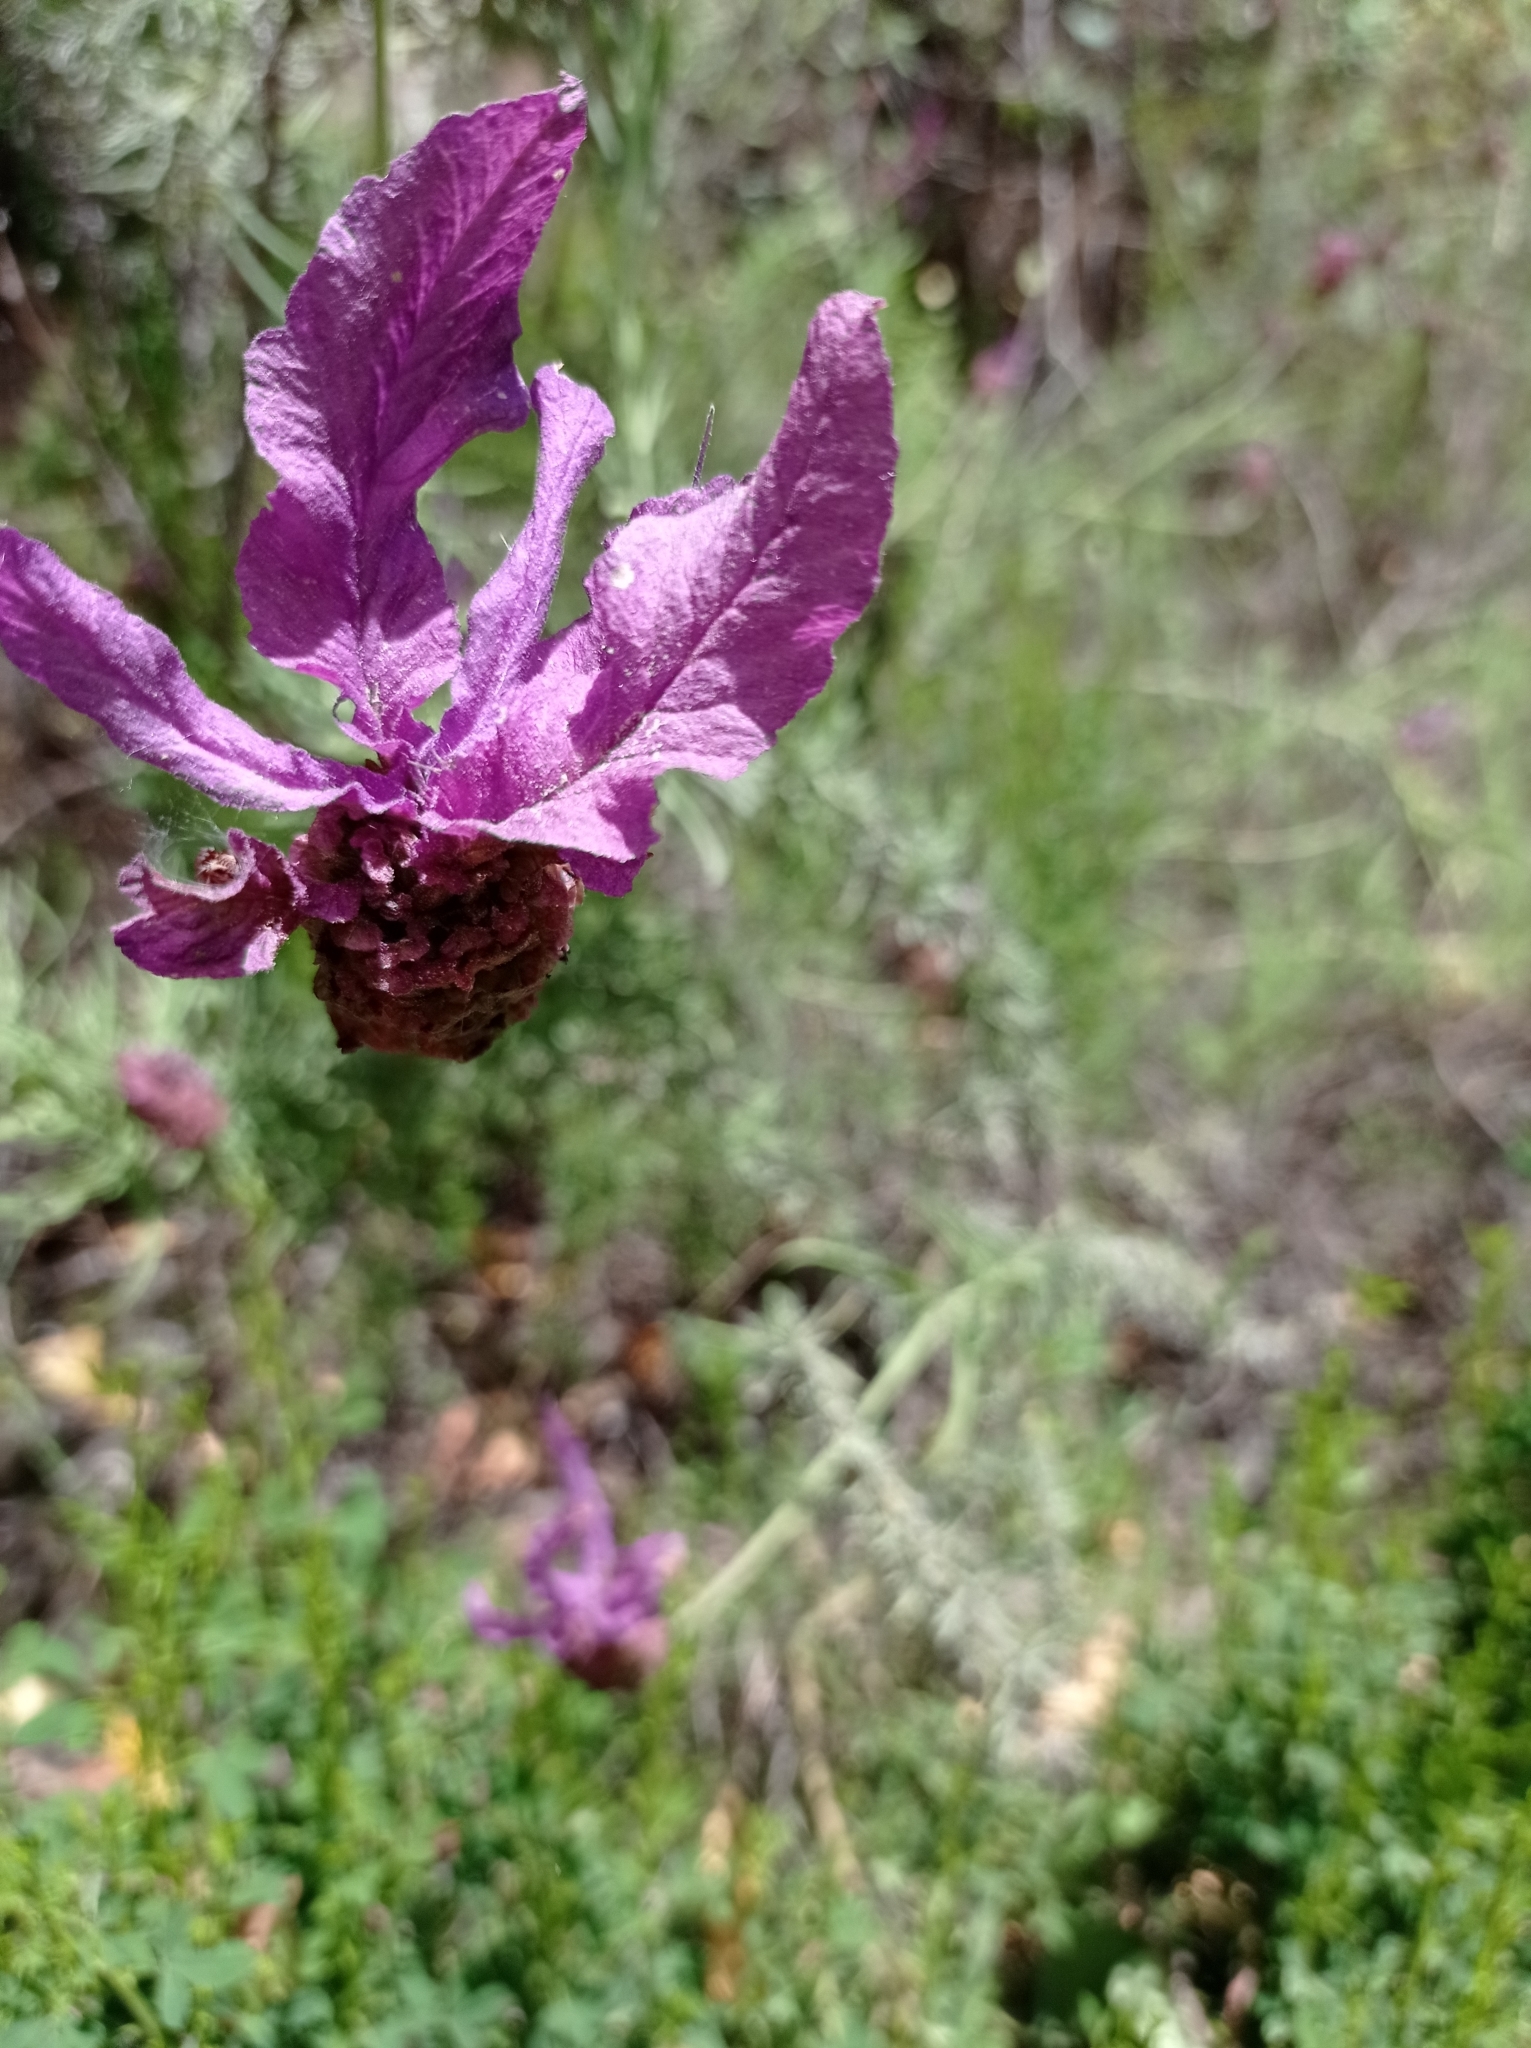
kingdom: Plantae
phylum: Tracheophyta
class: Magnoliopsida
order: Lamiales
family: Lamiaceae
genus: Lavandula
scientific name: Lavandula pedunculata
